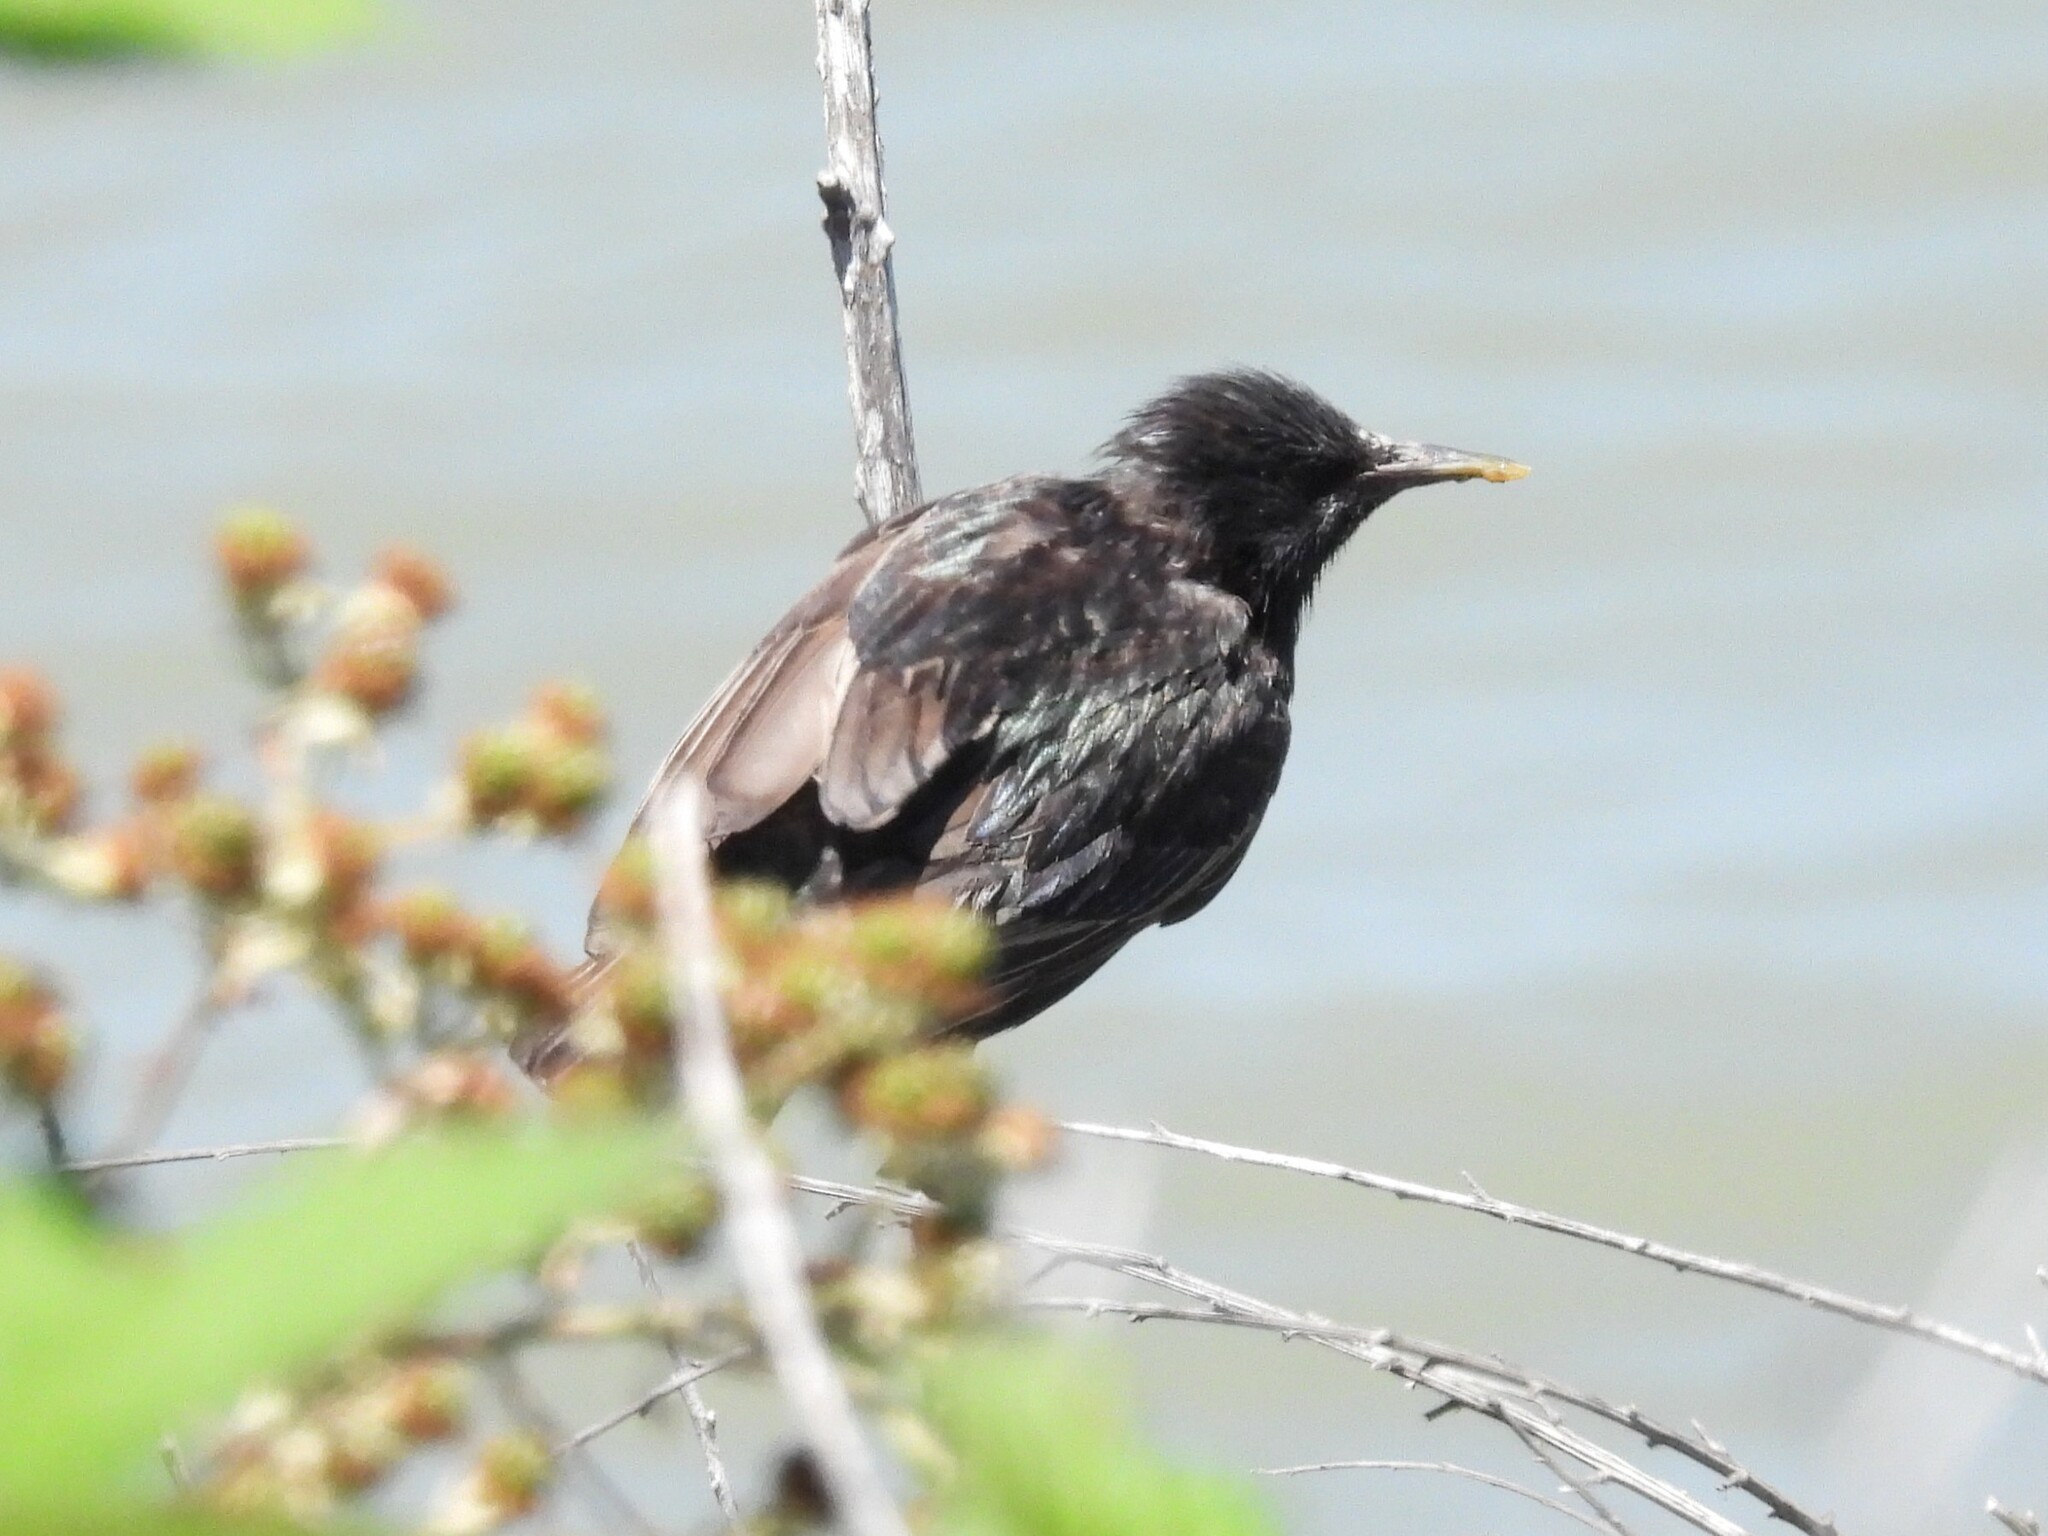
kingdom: Animalia
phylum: Chordata
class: Aves
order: Passeriformes
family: Sturnidae
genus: Sturnus
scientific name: Sturnus vulgaris
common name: Common starling
